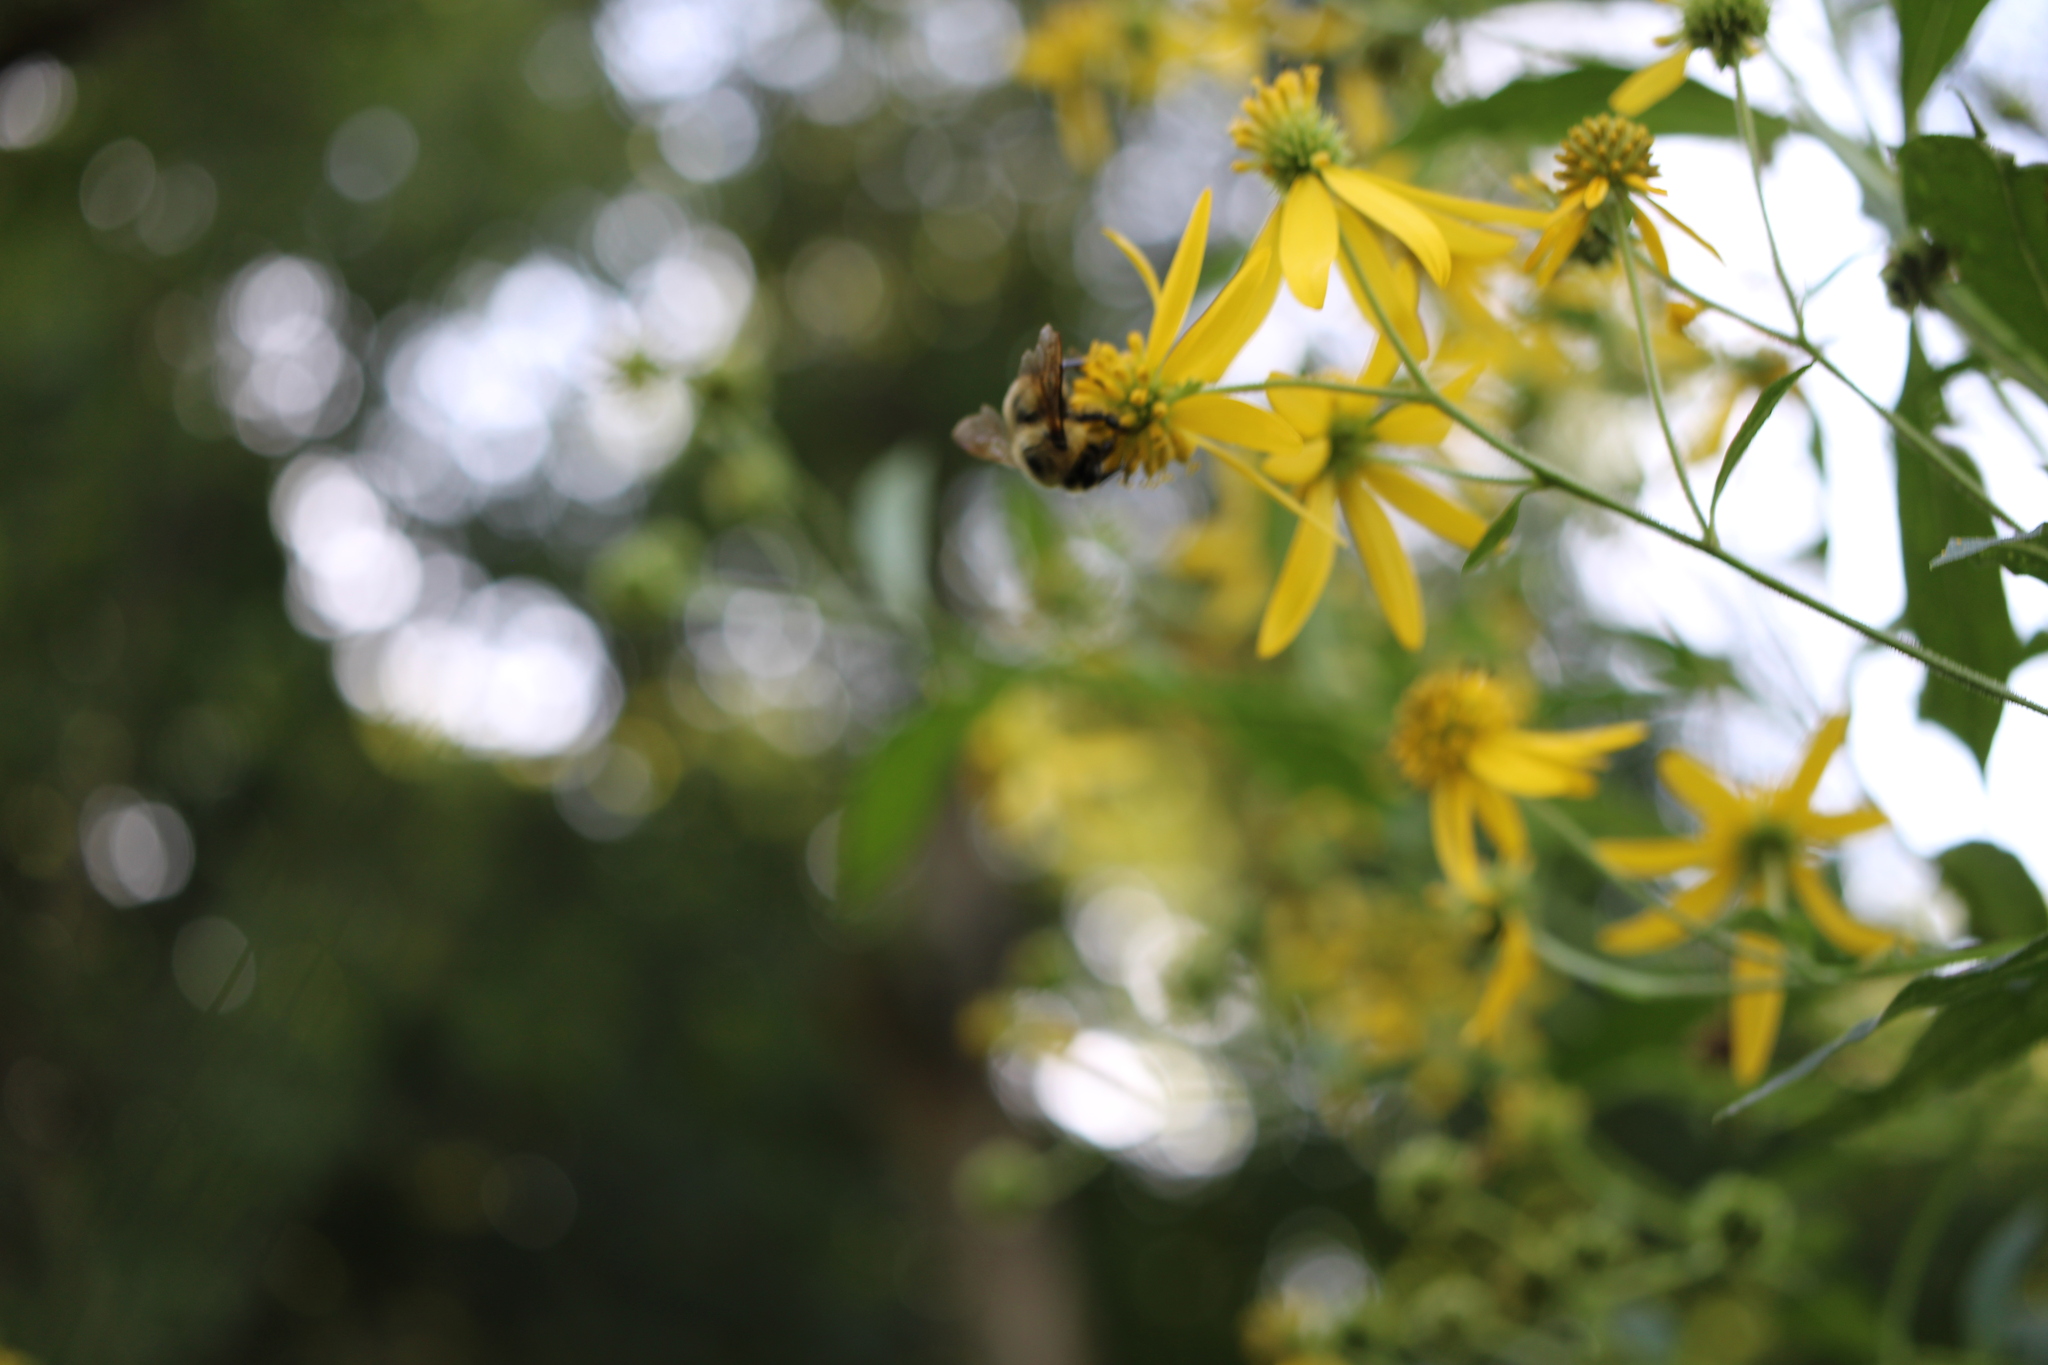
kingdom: Animalia
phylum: Arthropoda
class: Insecta
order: Hymenoptera
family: Apidae
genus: Bombus
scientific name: Bombus griseocollis
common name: Brown-belted bumble bee
